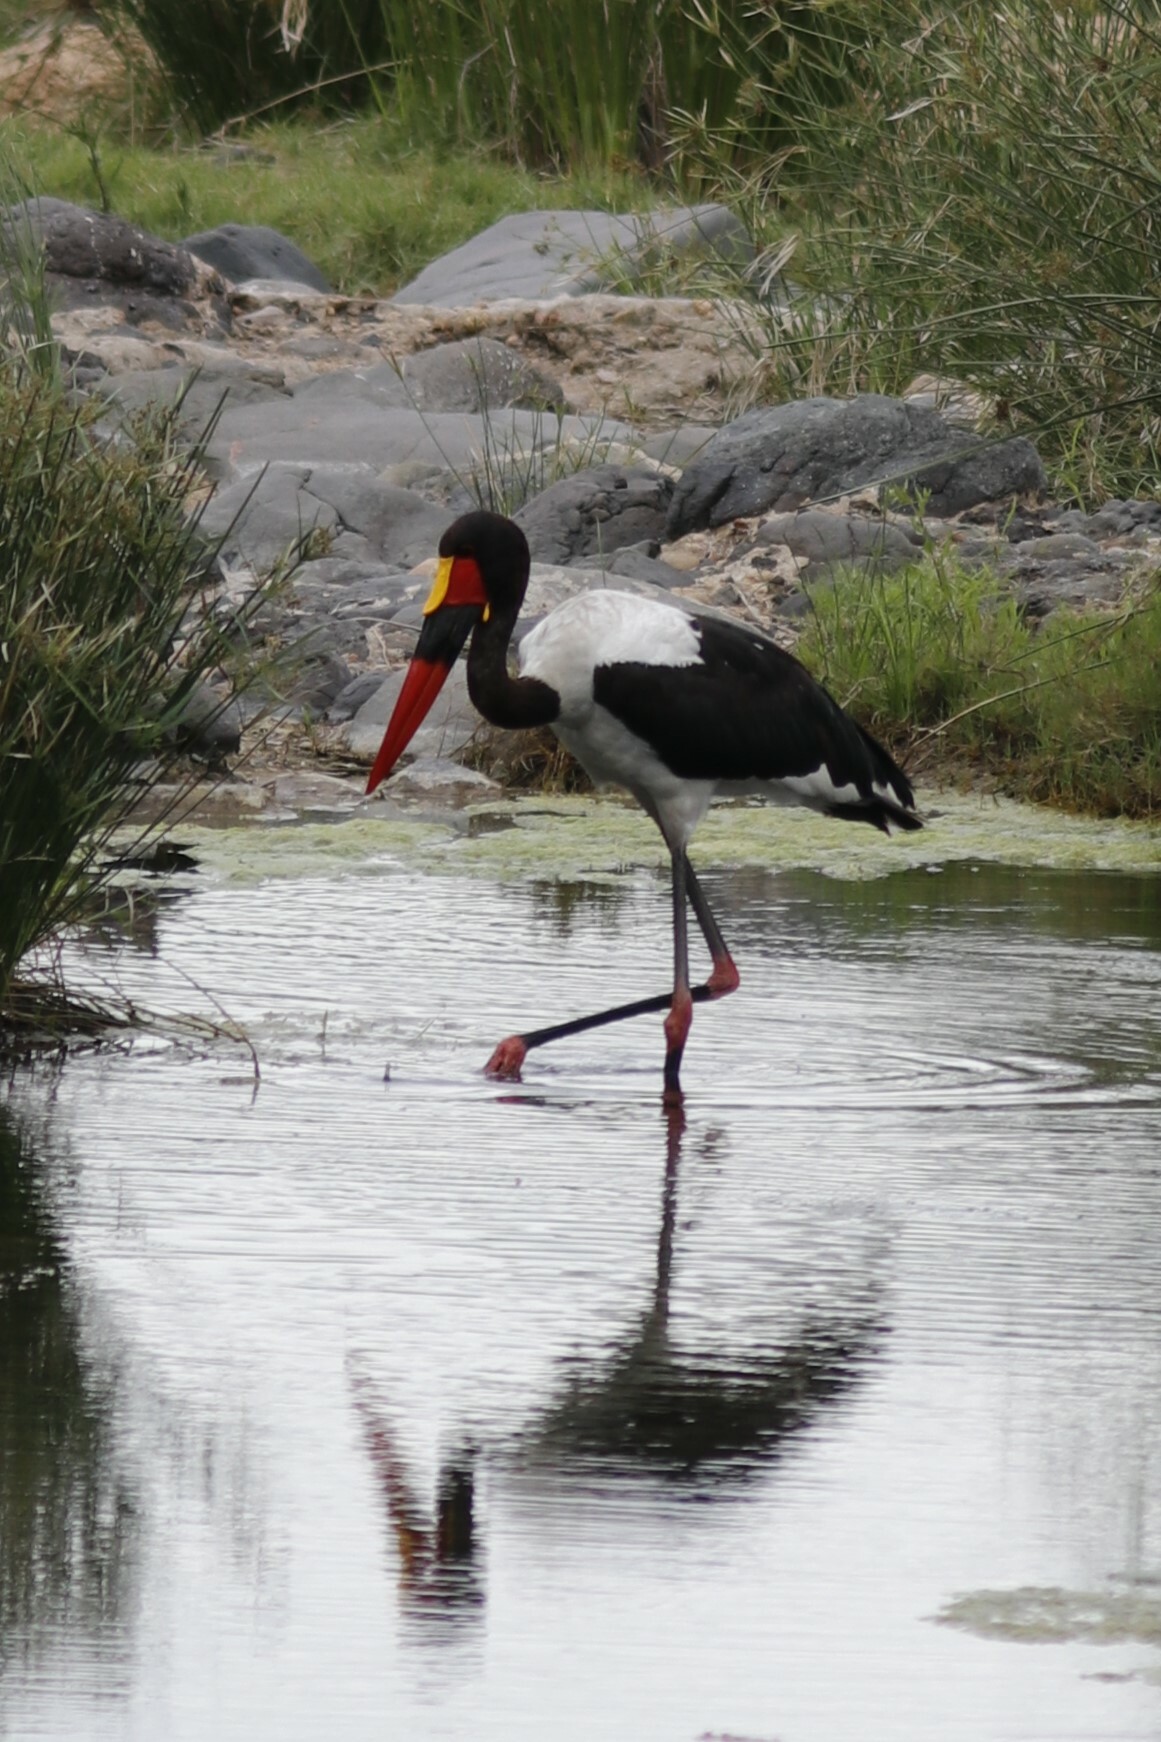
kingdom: Animalia
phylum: Chordata
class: Aves
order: Ciconiiformes
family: Ciconiidae
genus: Ephippiorhynchus
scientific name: Ephippiorhynchus senegalensis
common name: Saddle-billed stork
